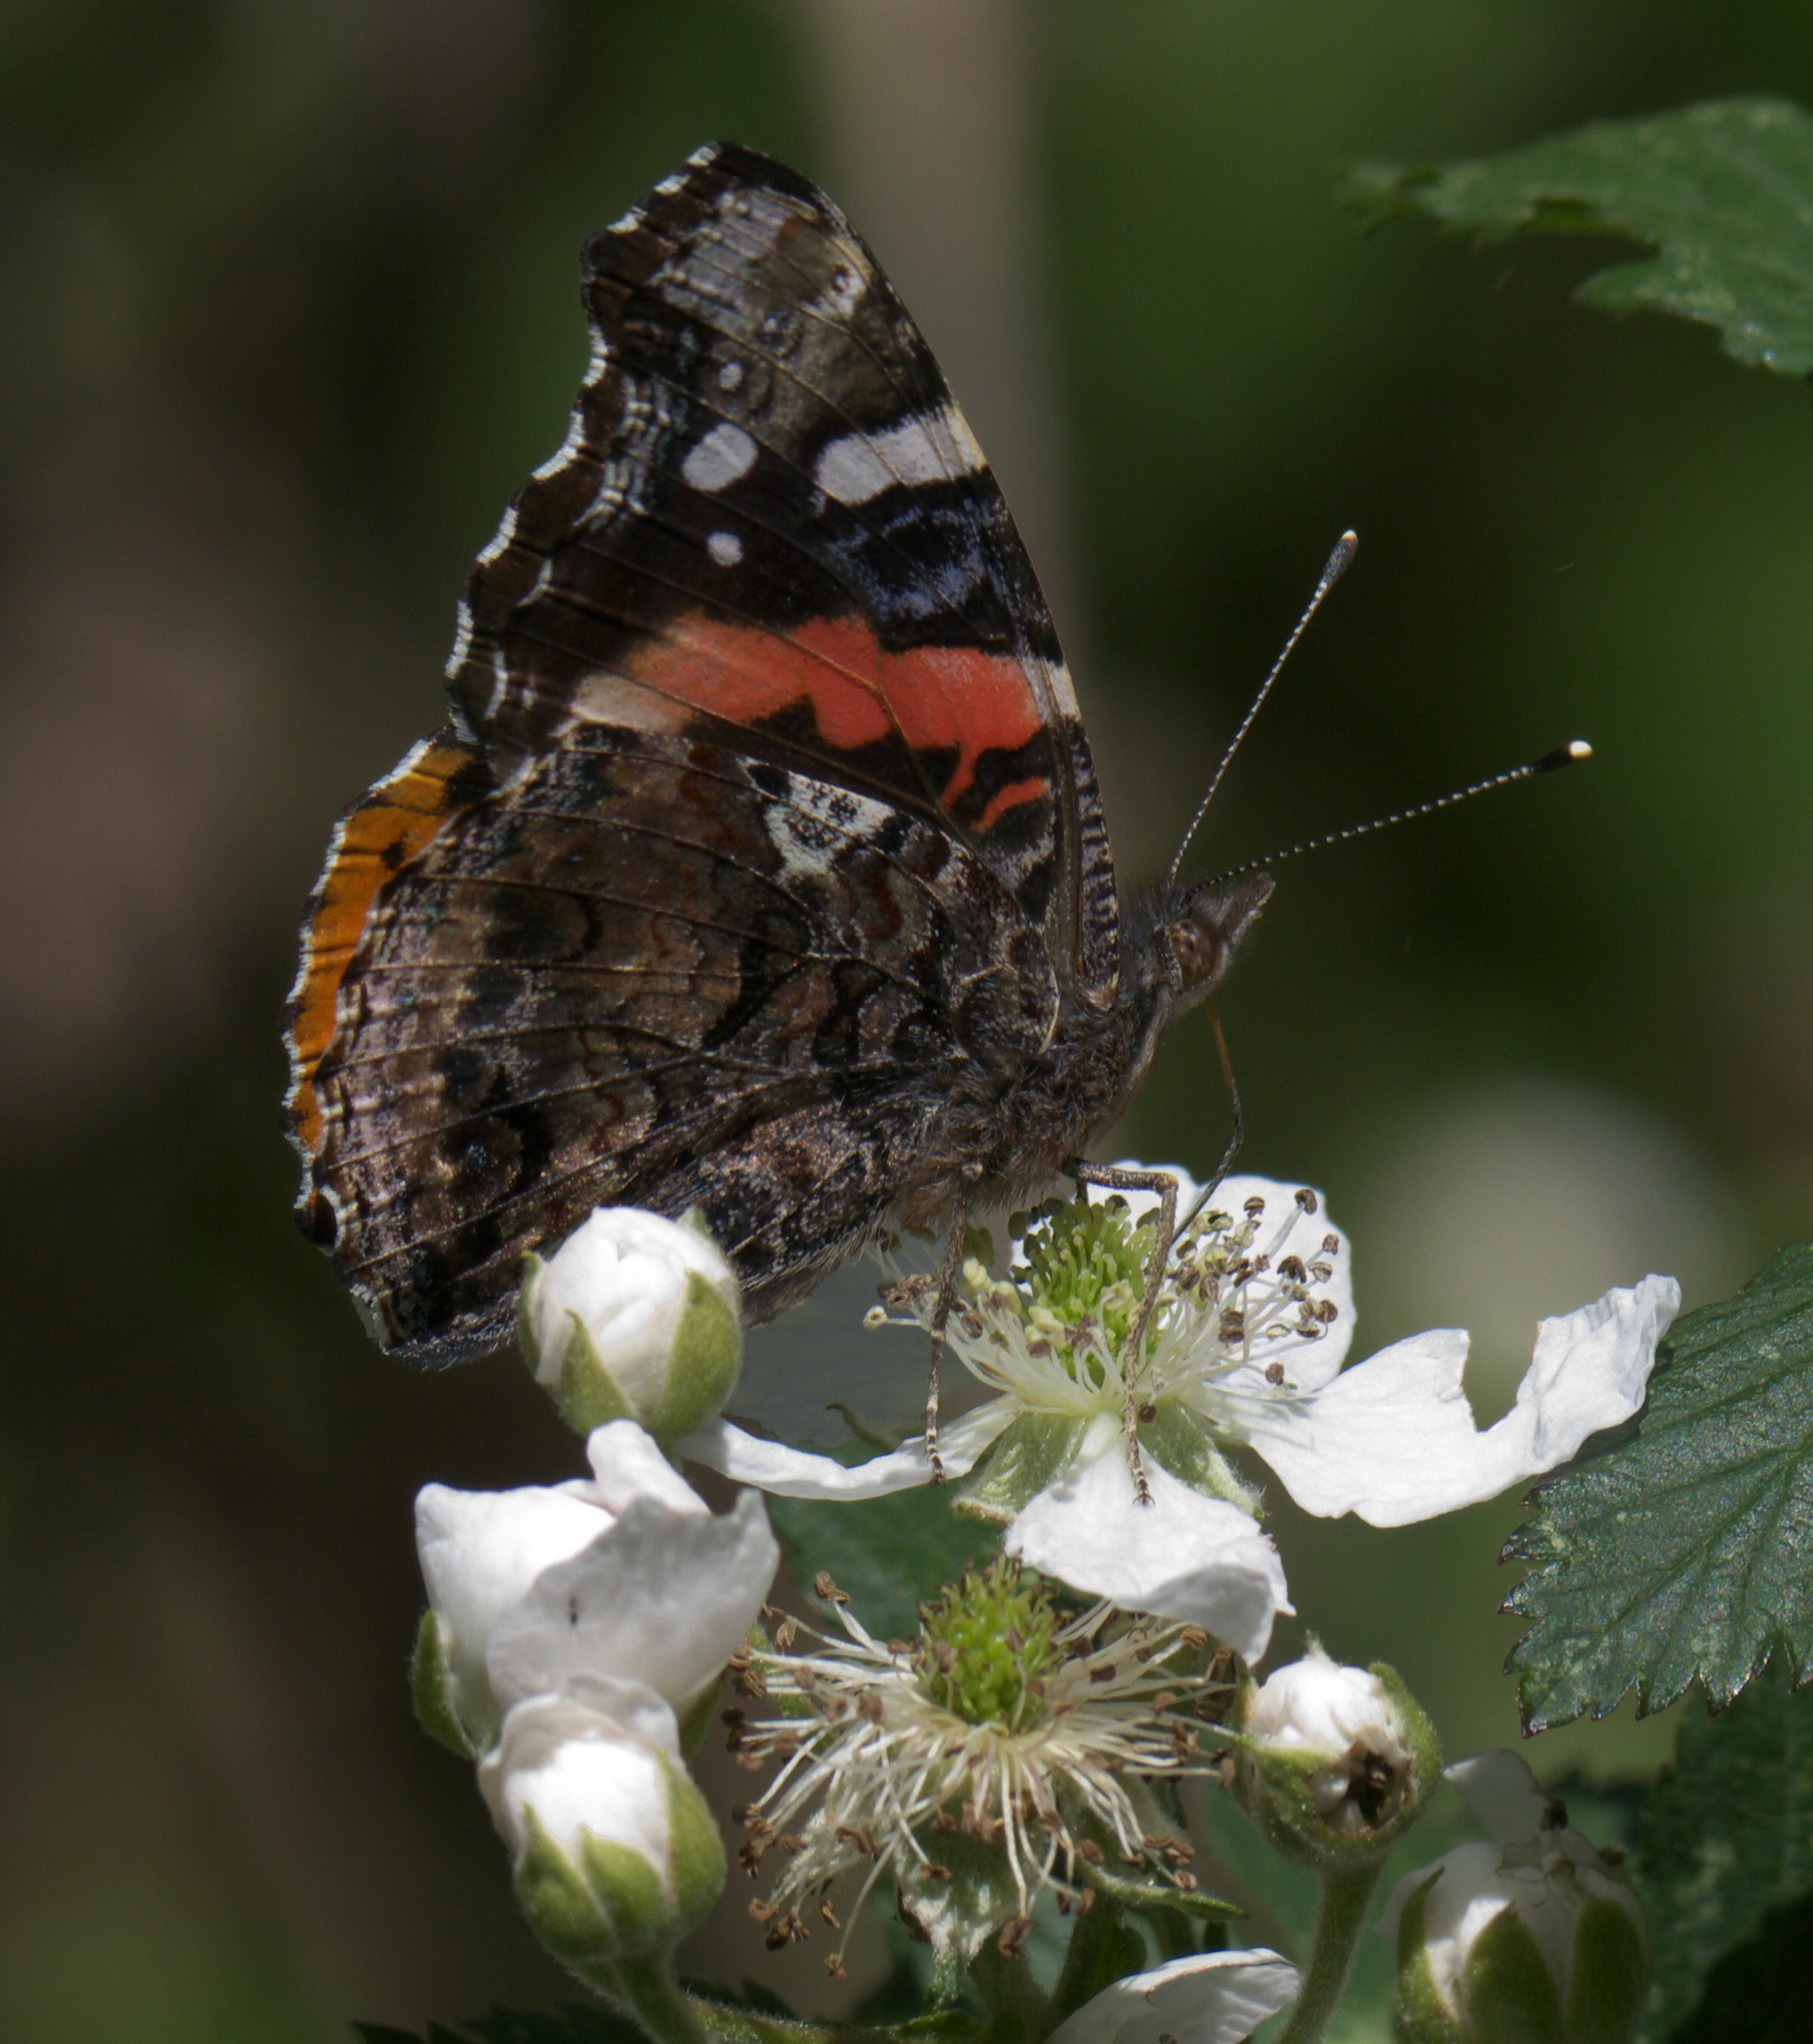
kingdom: Animalia
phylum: Arthropoda
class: Insecta
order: Lepidoptera
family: Nymphalidae
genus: Vanessa
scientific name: Vanessa atalanta
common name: Red admiral
